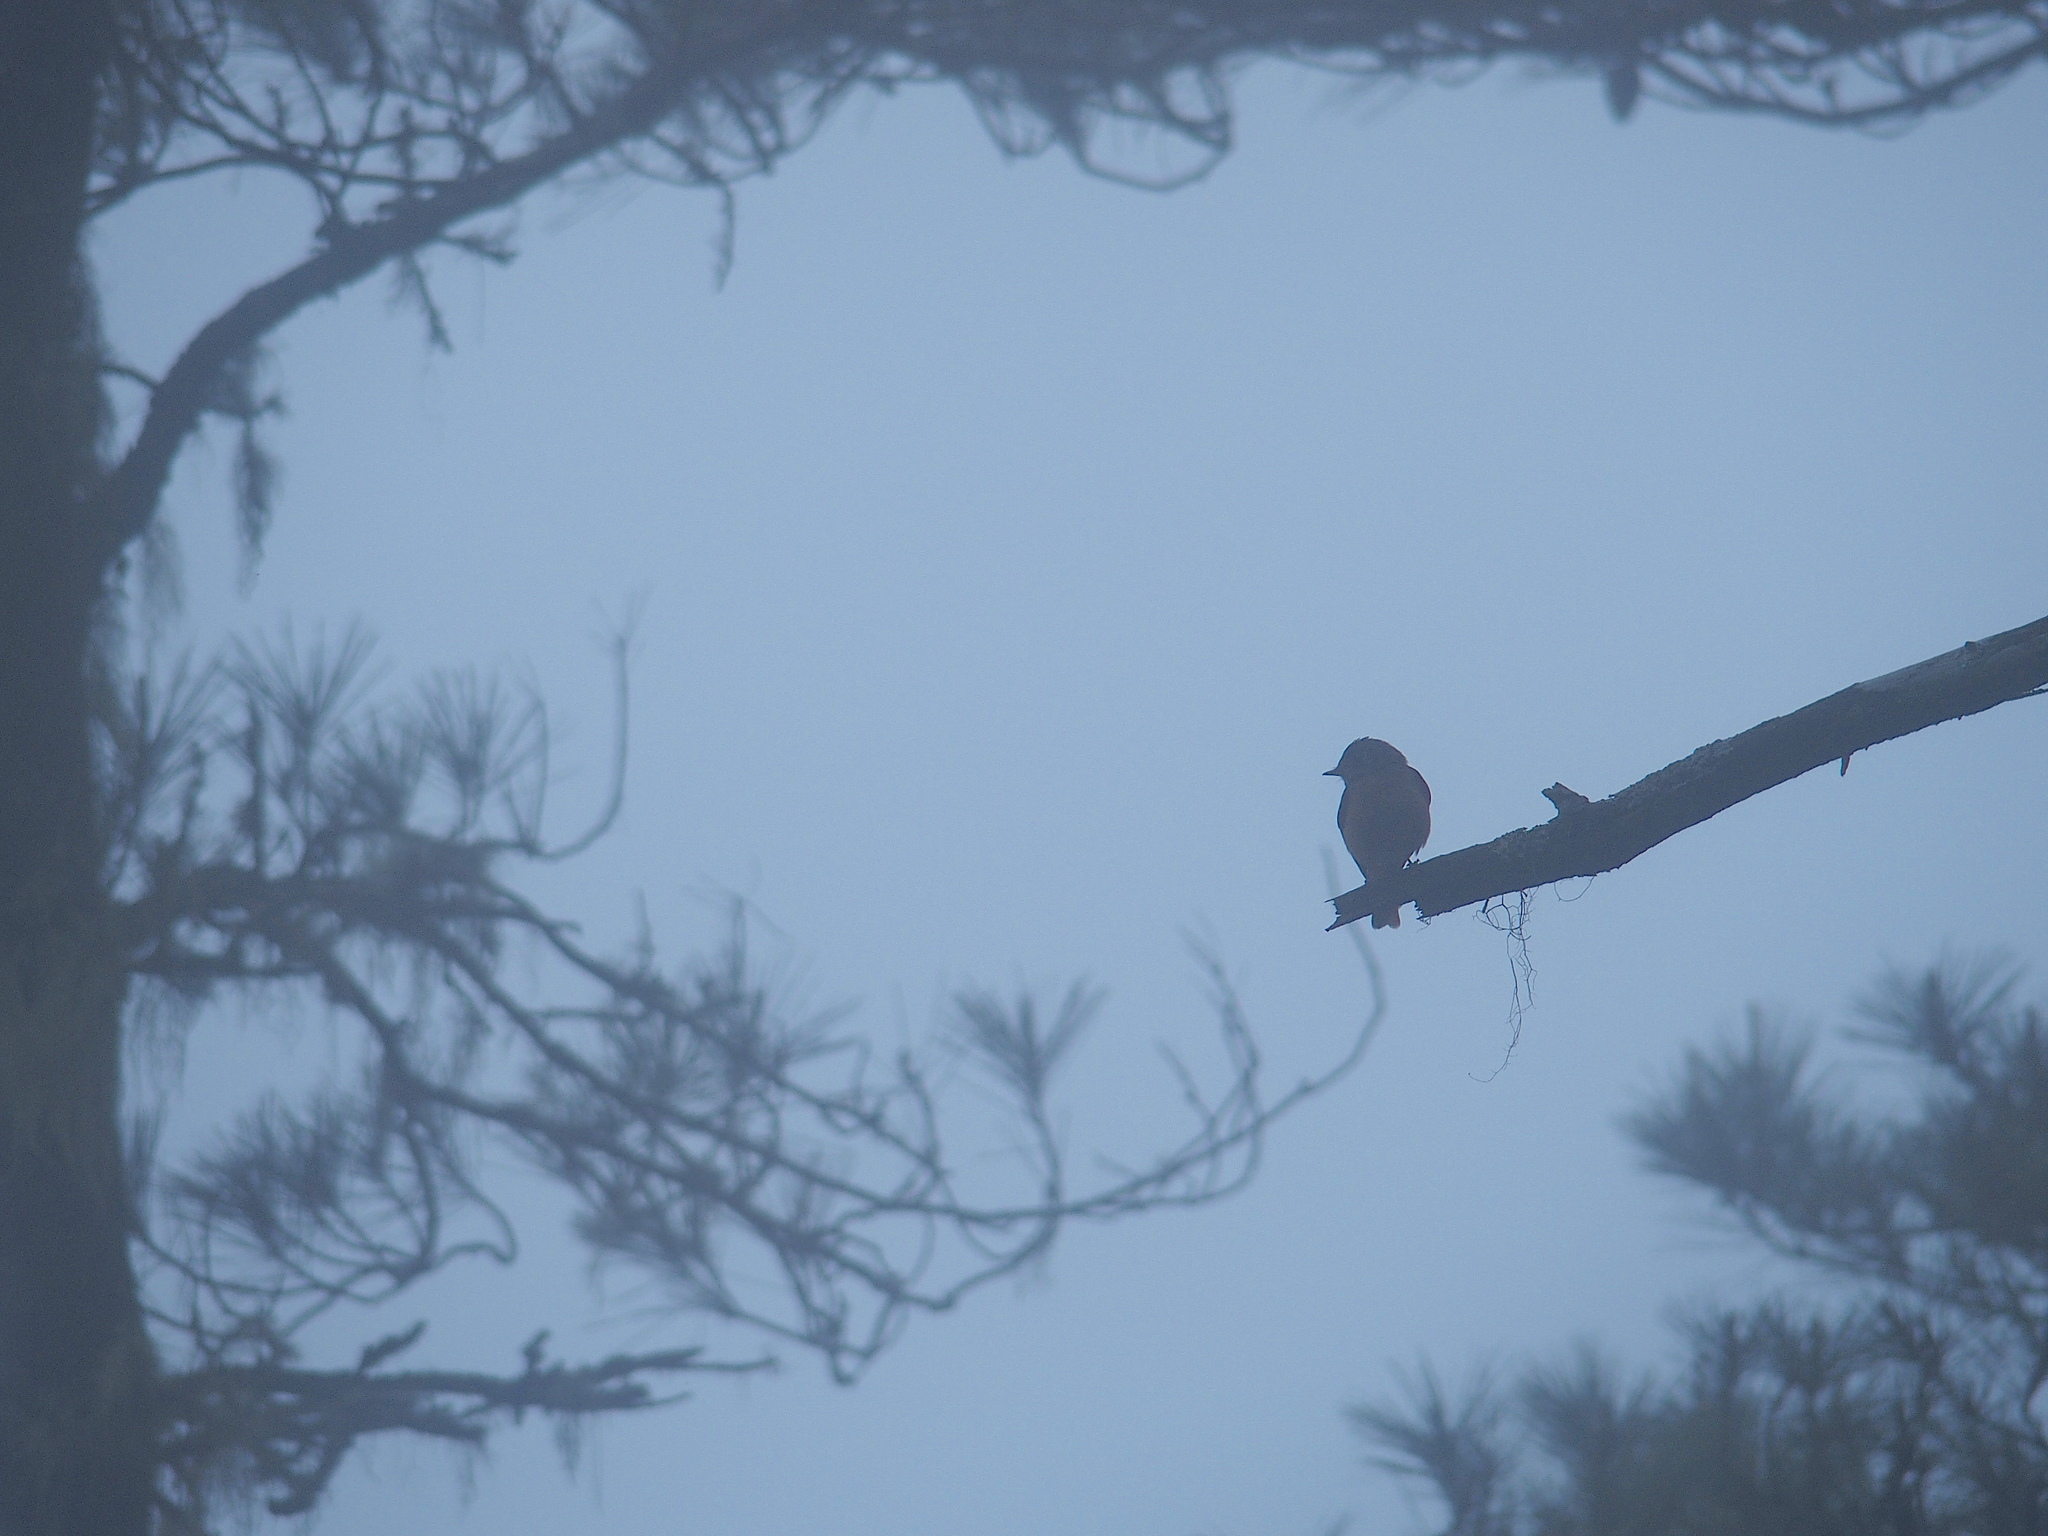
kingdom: Animalia
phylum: Chordata
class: Aves
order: Passeriformes
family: Muscicapidae
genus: Muscicapa
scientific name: Muscicapa ferruginea
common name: Ferruginous flycatcher
